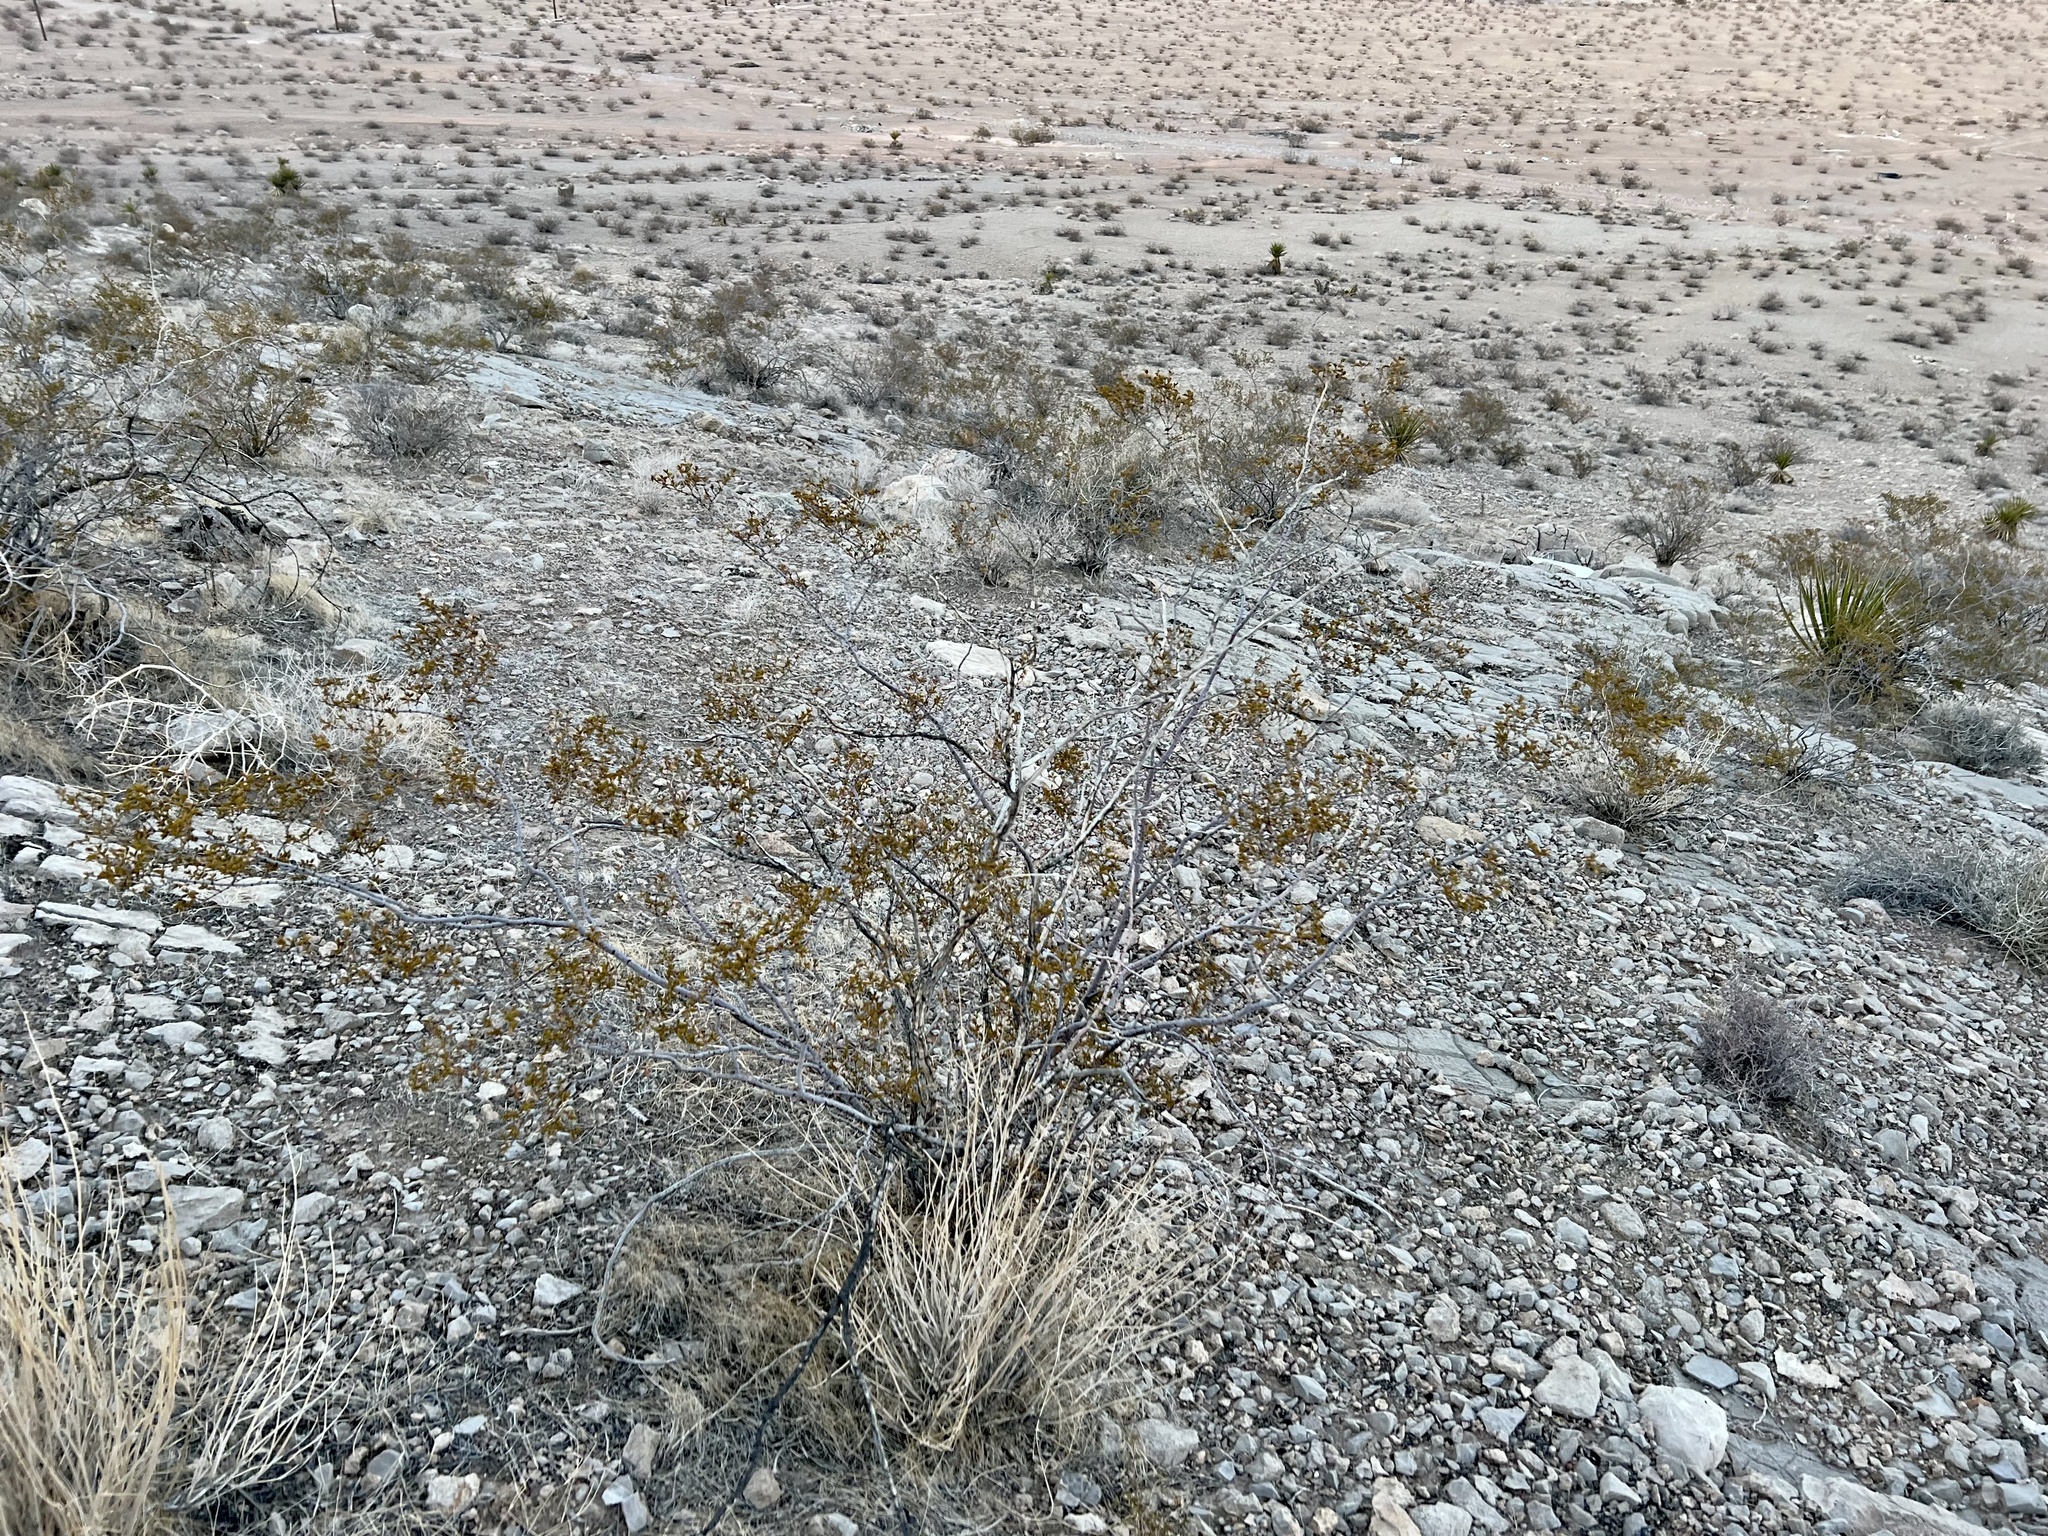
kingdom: Plantae
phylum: Tracheophyta
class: Magnoliopsida
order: Zygophyllales
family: Zygophyllaceae
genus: Larrea
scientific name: Larrea tridentata
